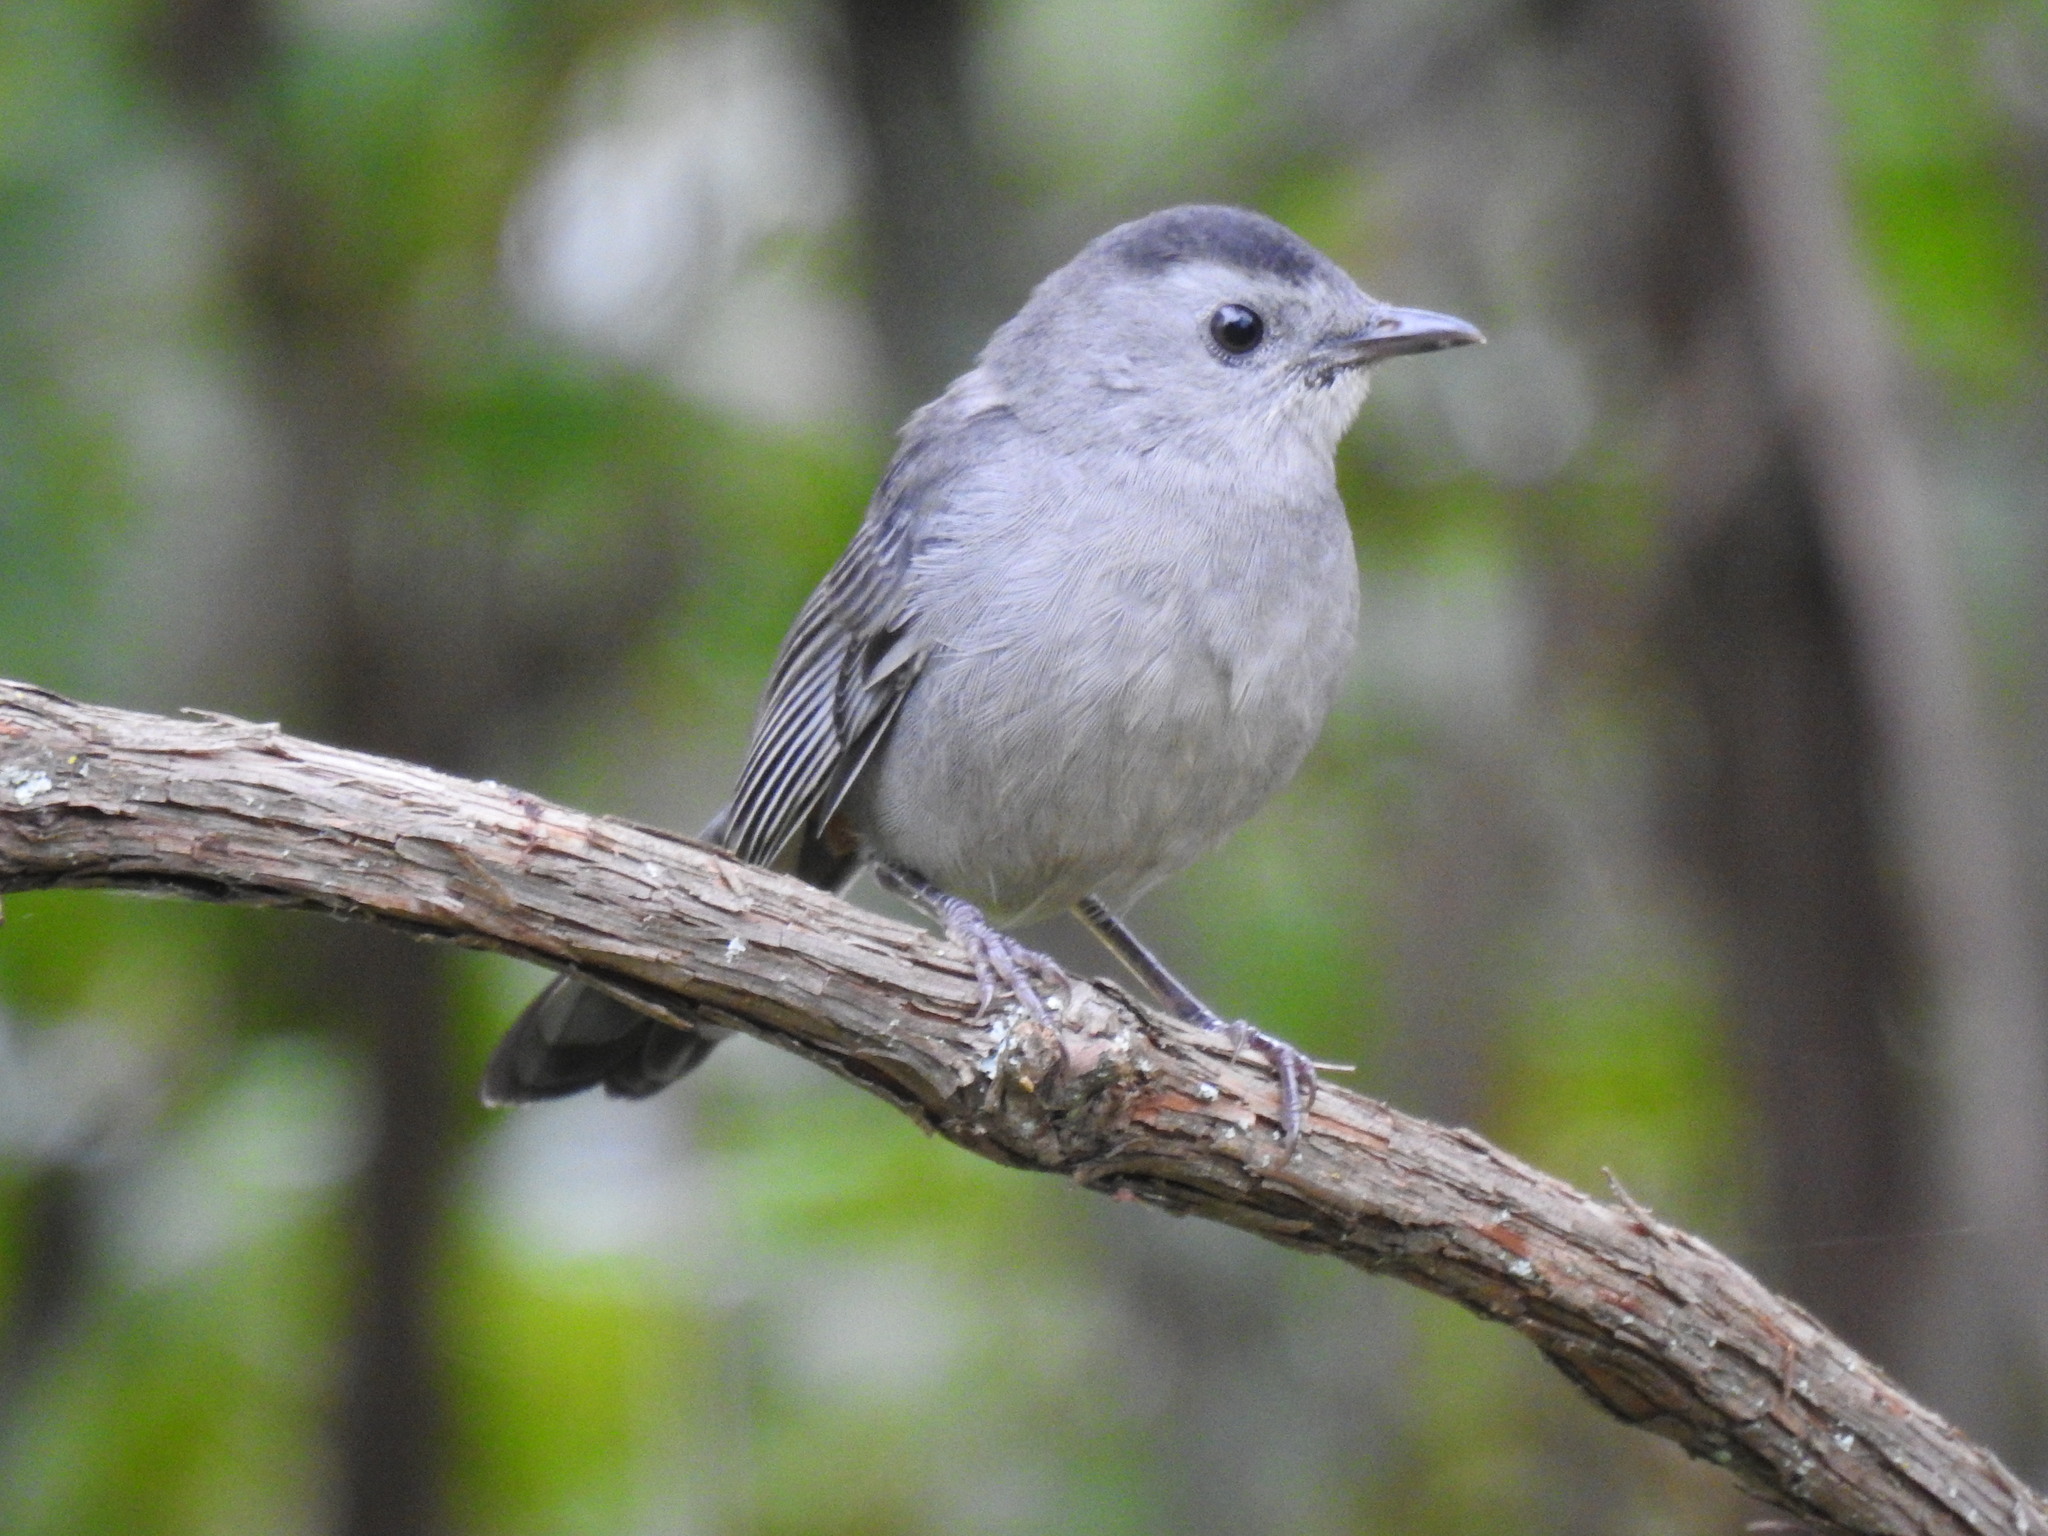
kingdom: Animalia
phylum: Chordata
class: Aves
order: Passeriformes
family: Mimidae
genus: Dumetella
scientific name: Dumetella carolinensis
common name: Gray catbird
